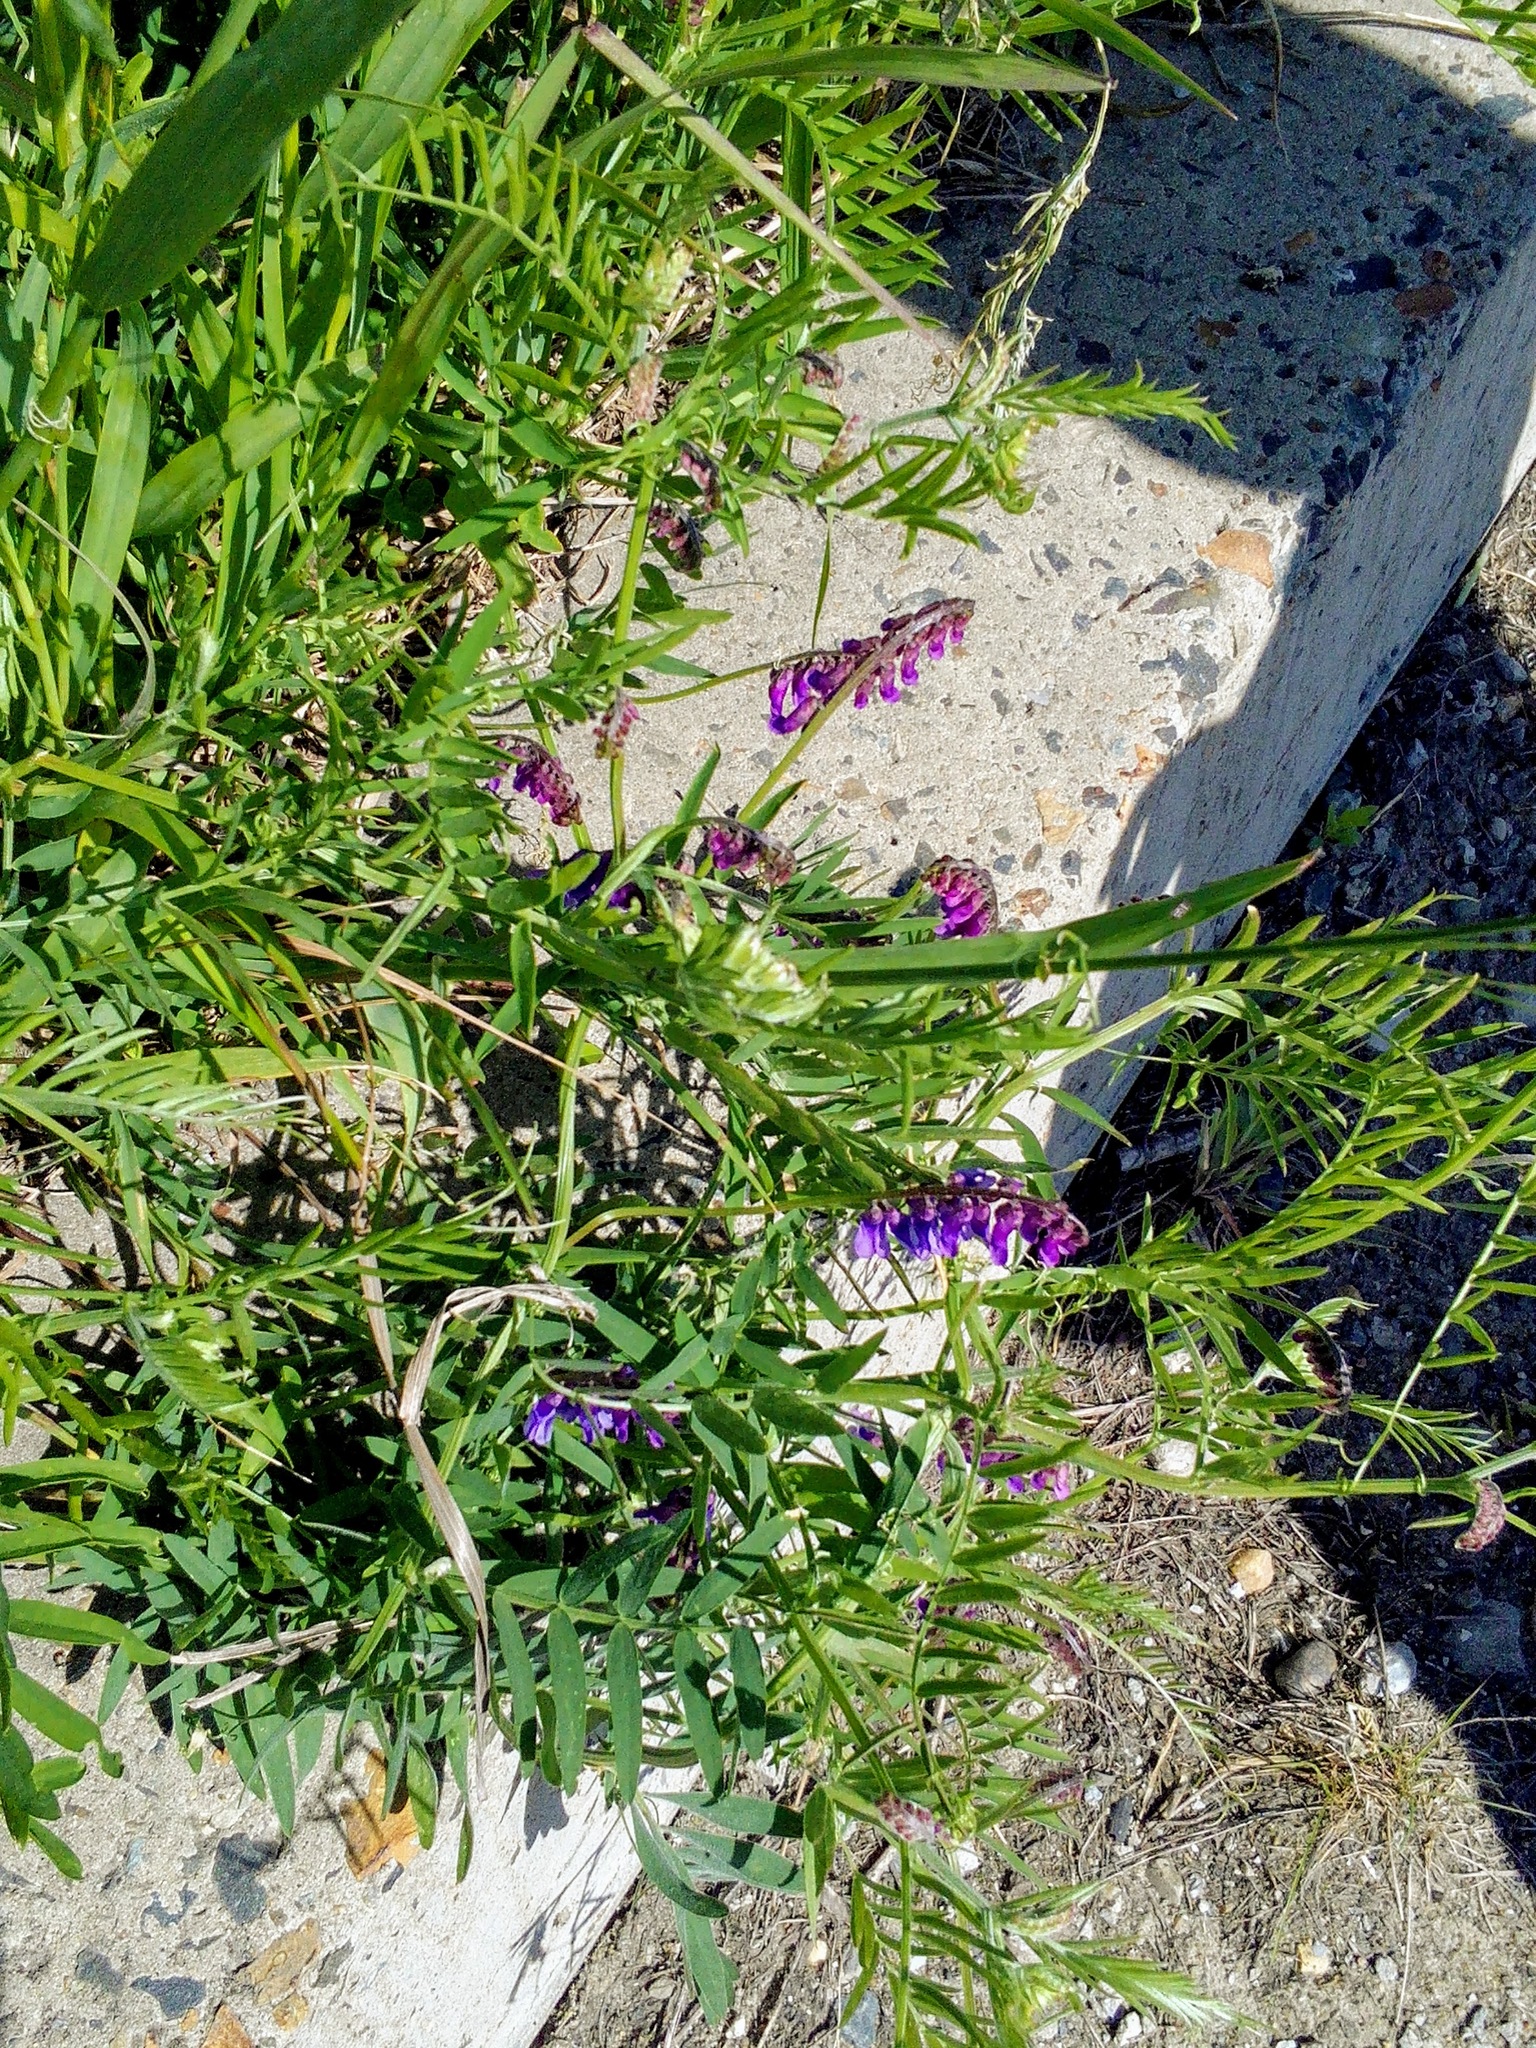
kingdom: Plantae
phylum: Tracheophyta
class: Magnoliopsida
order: Fabales
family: Fabaceae
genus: Vicia
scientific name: Vicia cracca
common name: Bird vetch
